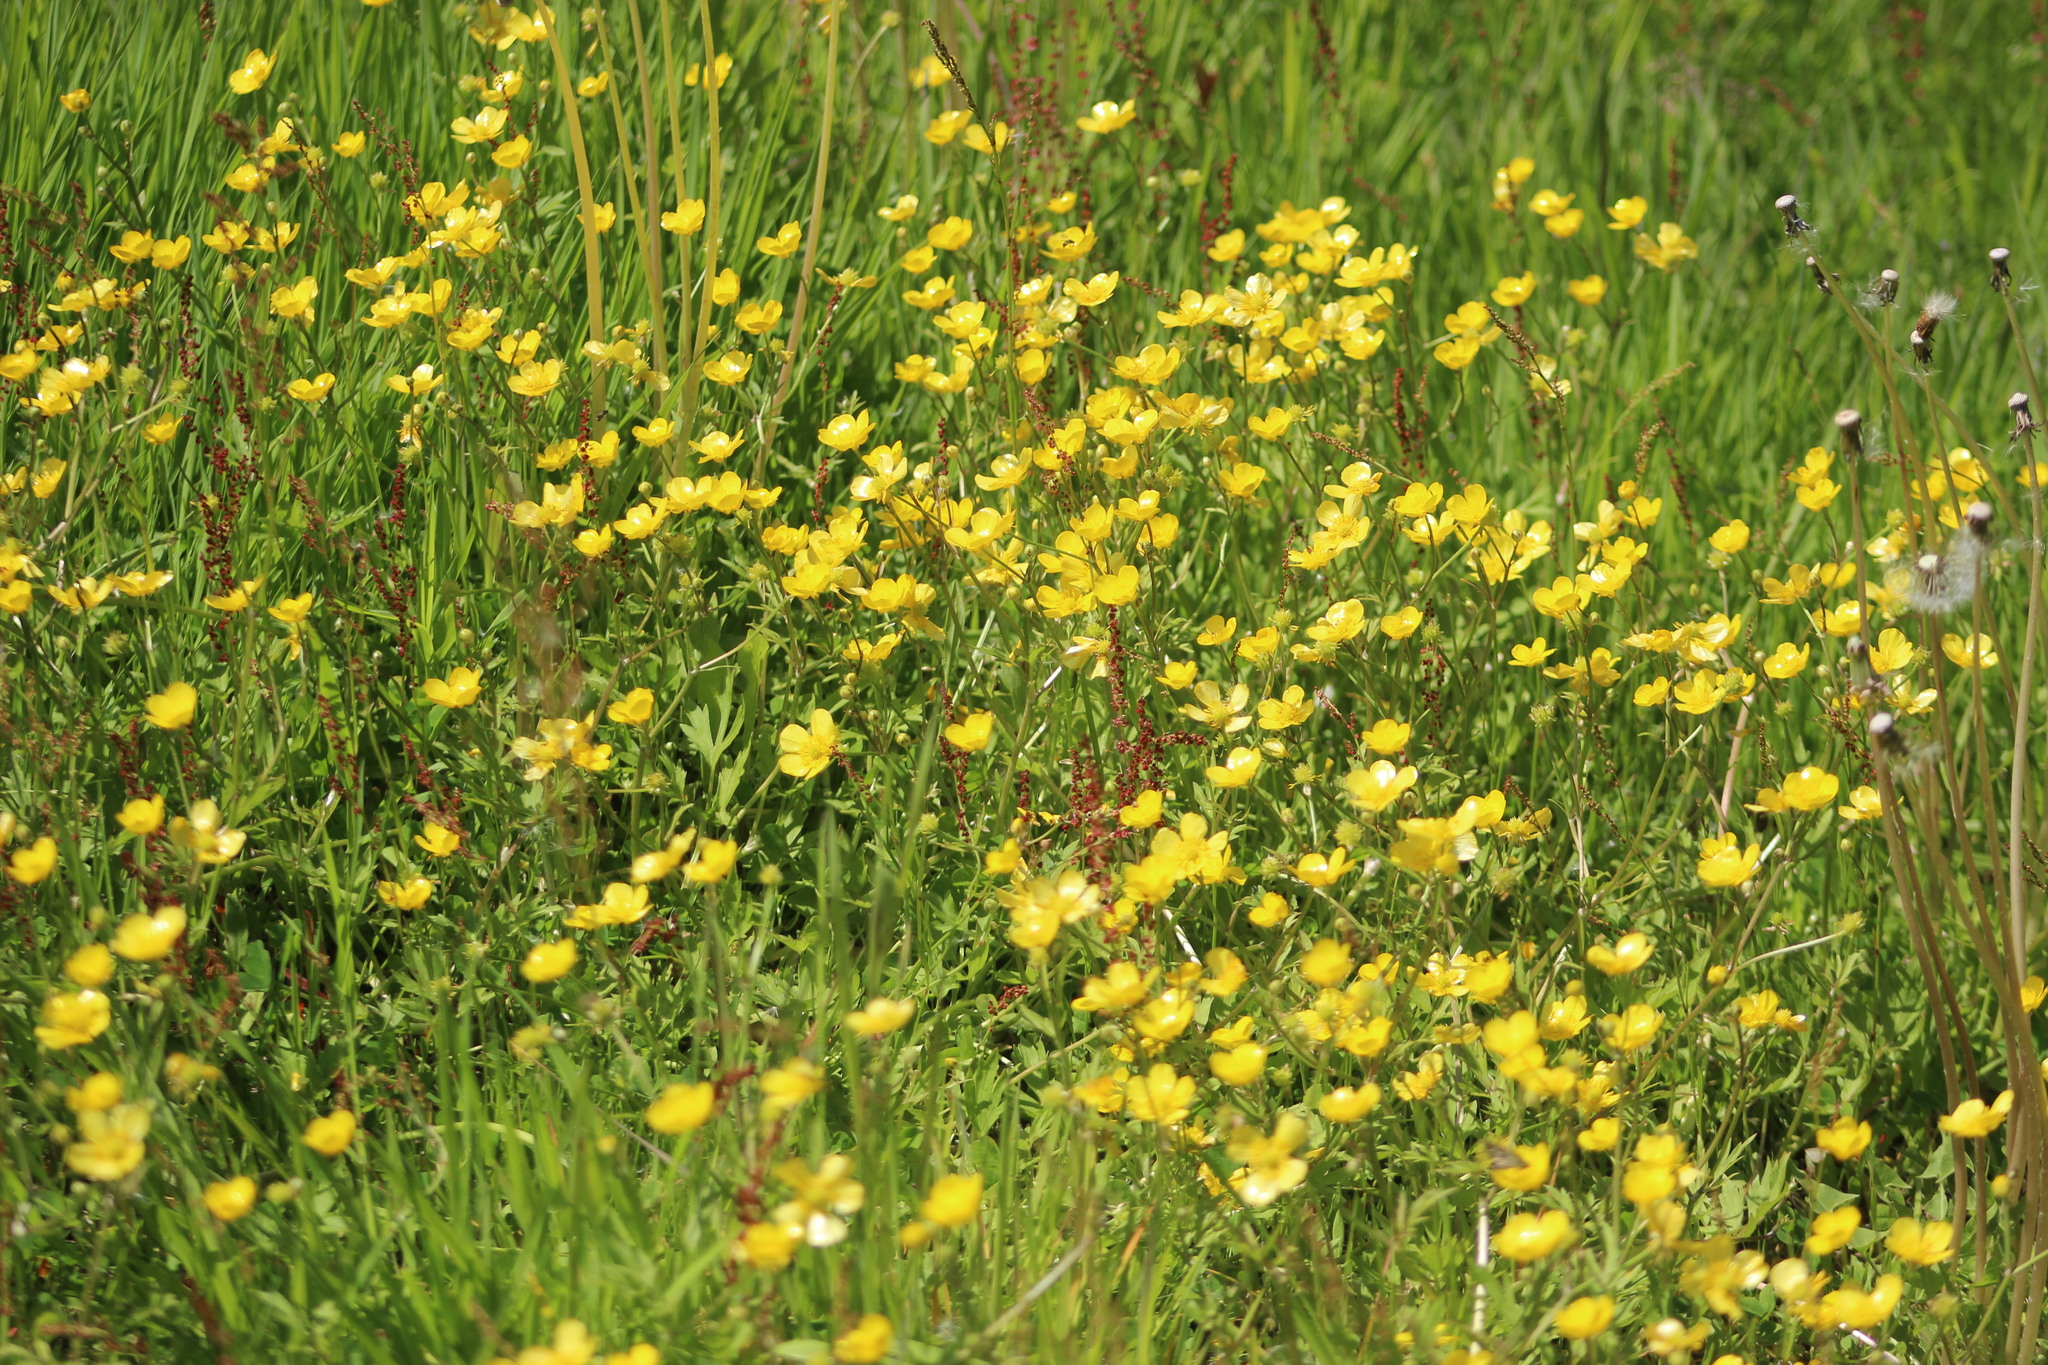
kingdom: Plantae
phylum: Tracheophyta
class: Magnoliopsida
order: Ranunculales
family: Ranunculaceae
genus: Ranunculus
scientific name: Ranunculus repens
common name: Creeping buttercup
